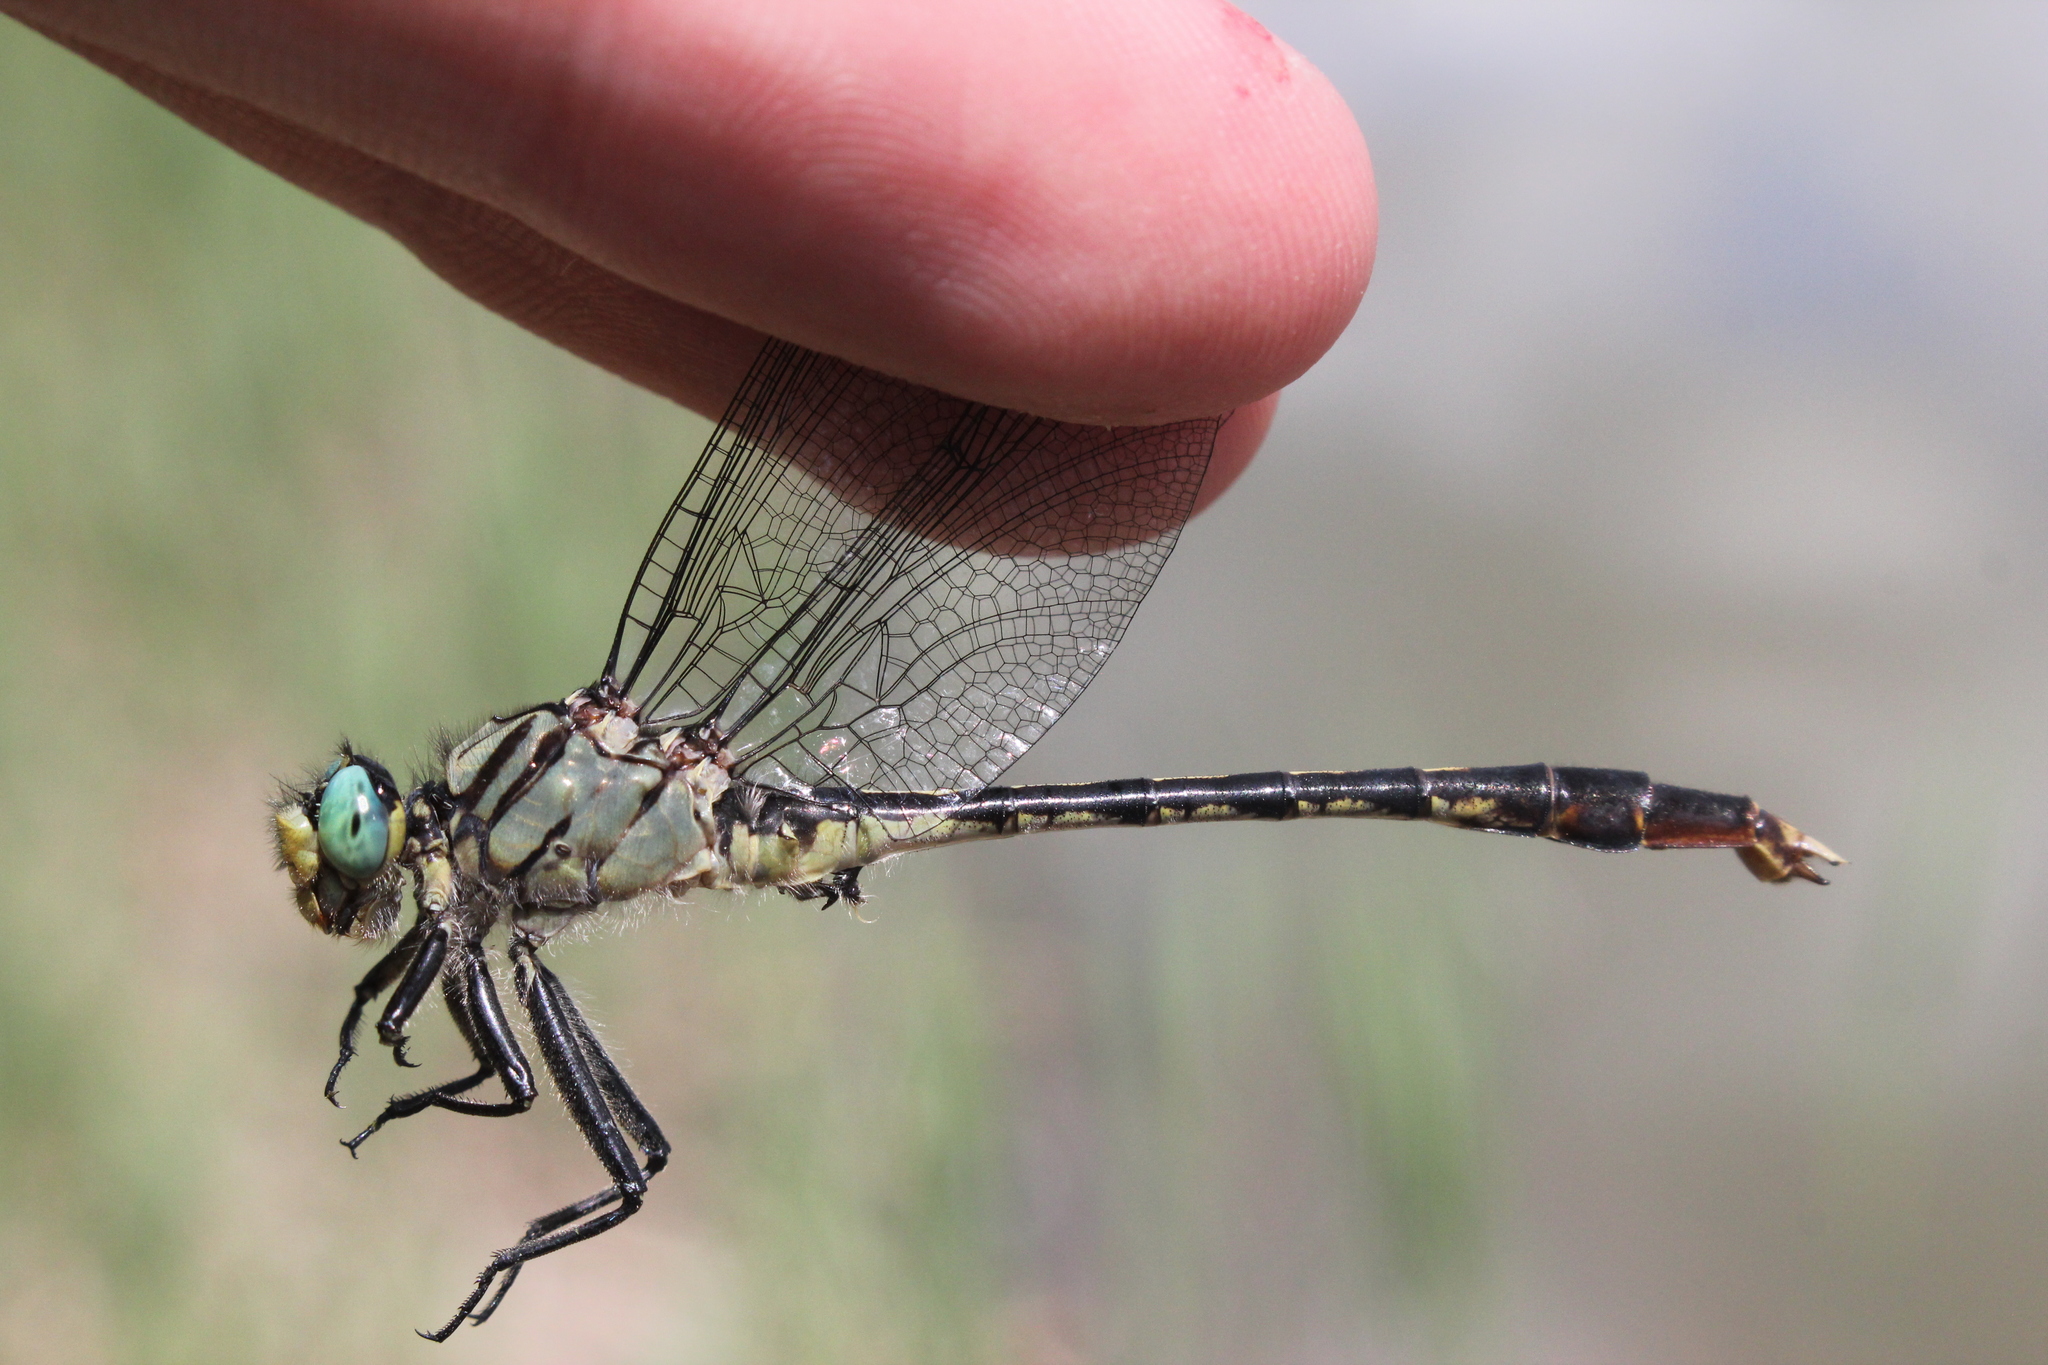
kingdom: Animalia
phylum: Arthropoda
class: Insecta
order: Odonata
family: Gomphidae
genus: Arigomphus
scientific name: Arigomphus villosipes
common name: Unicorn clubtail
